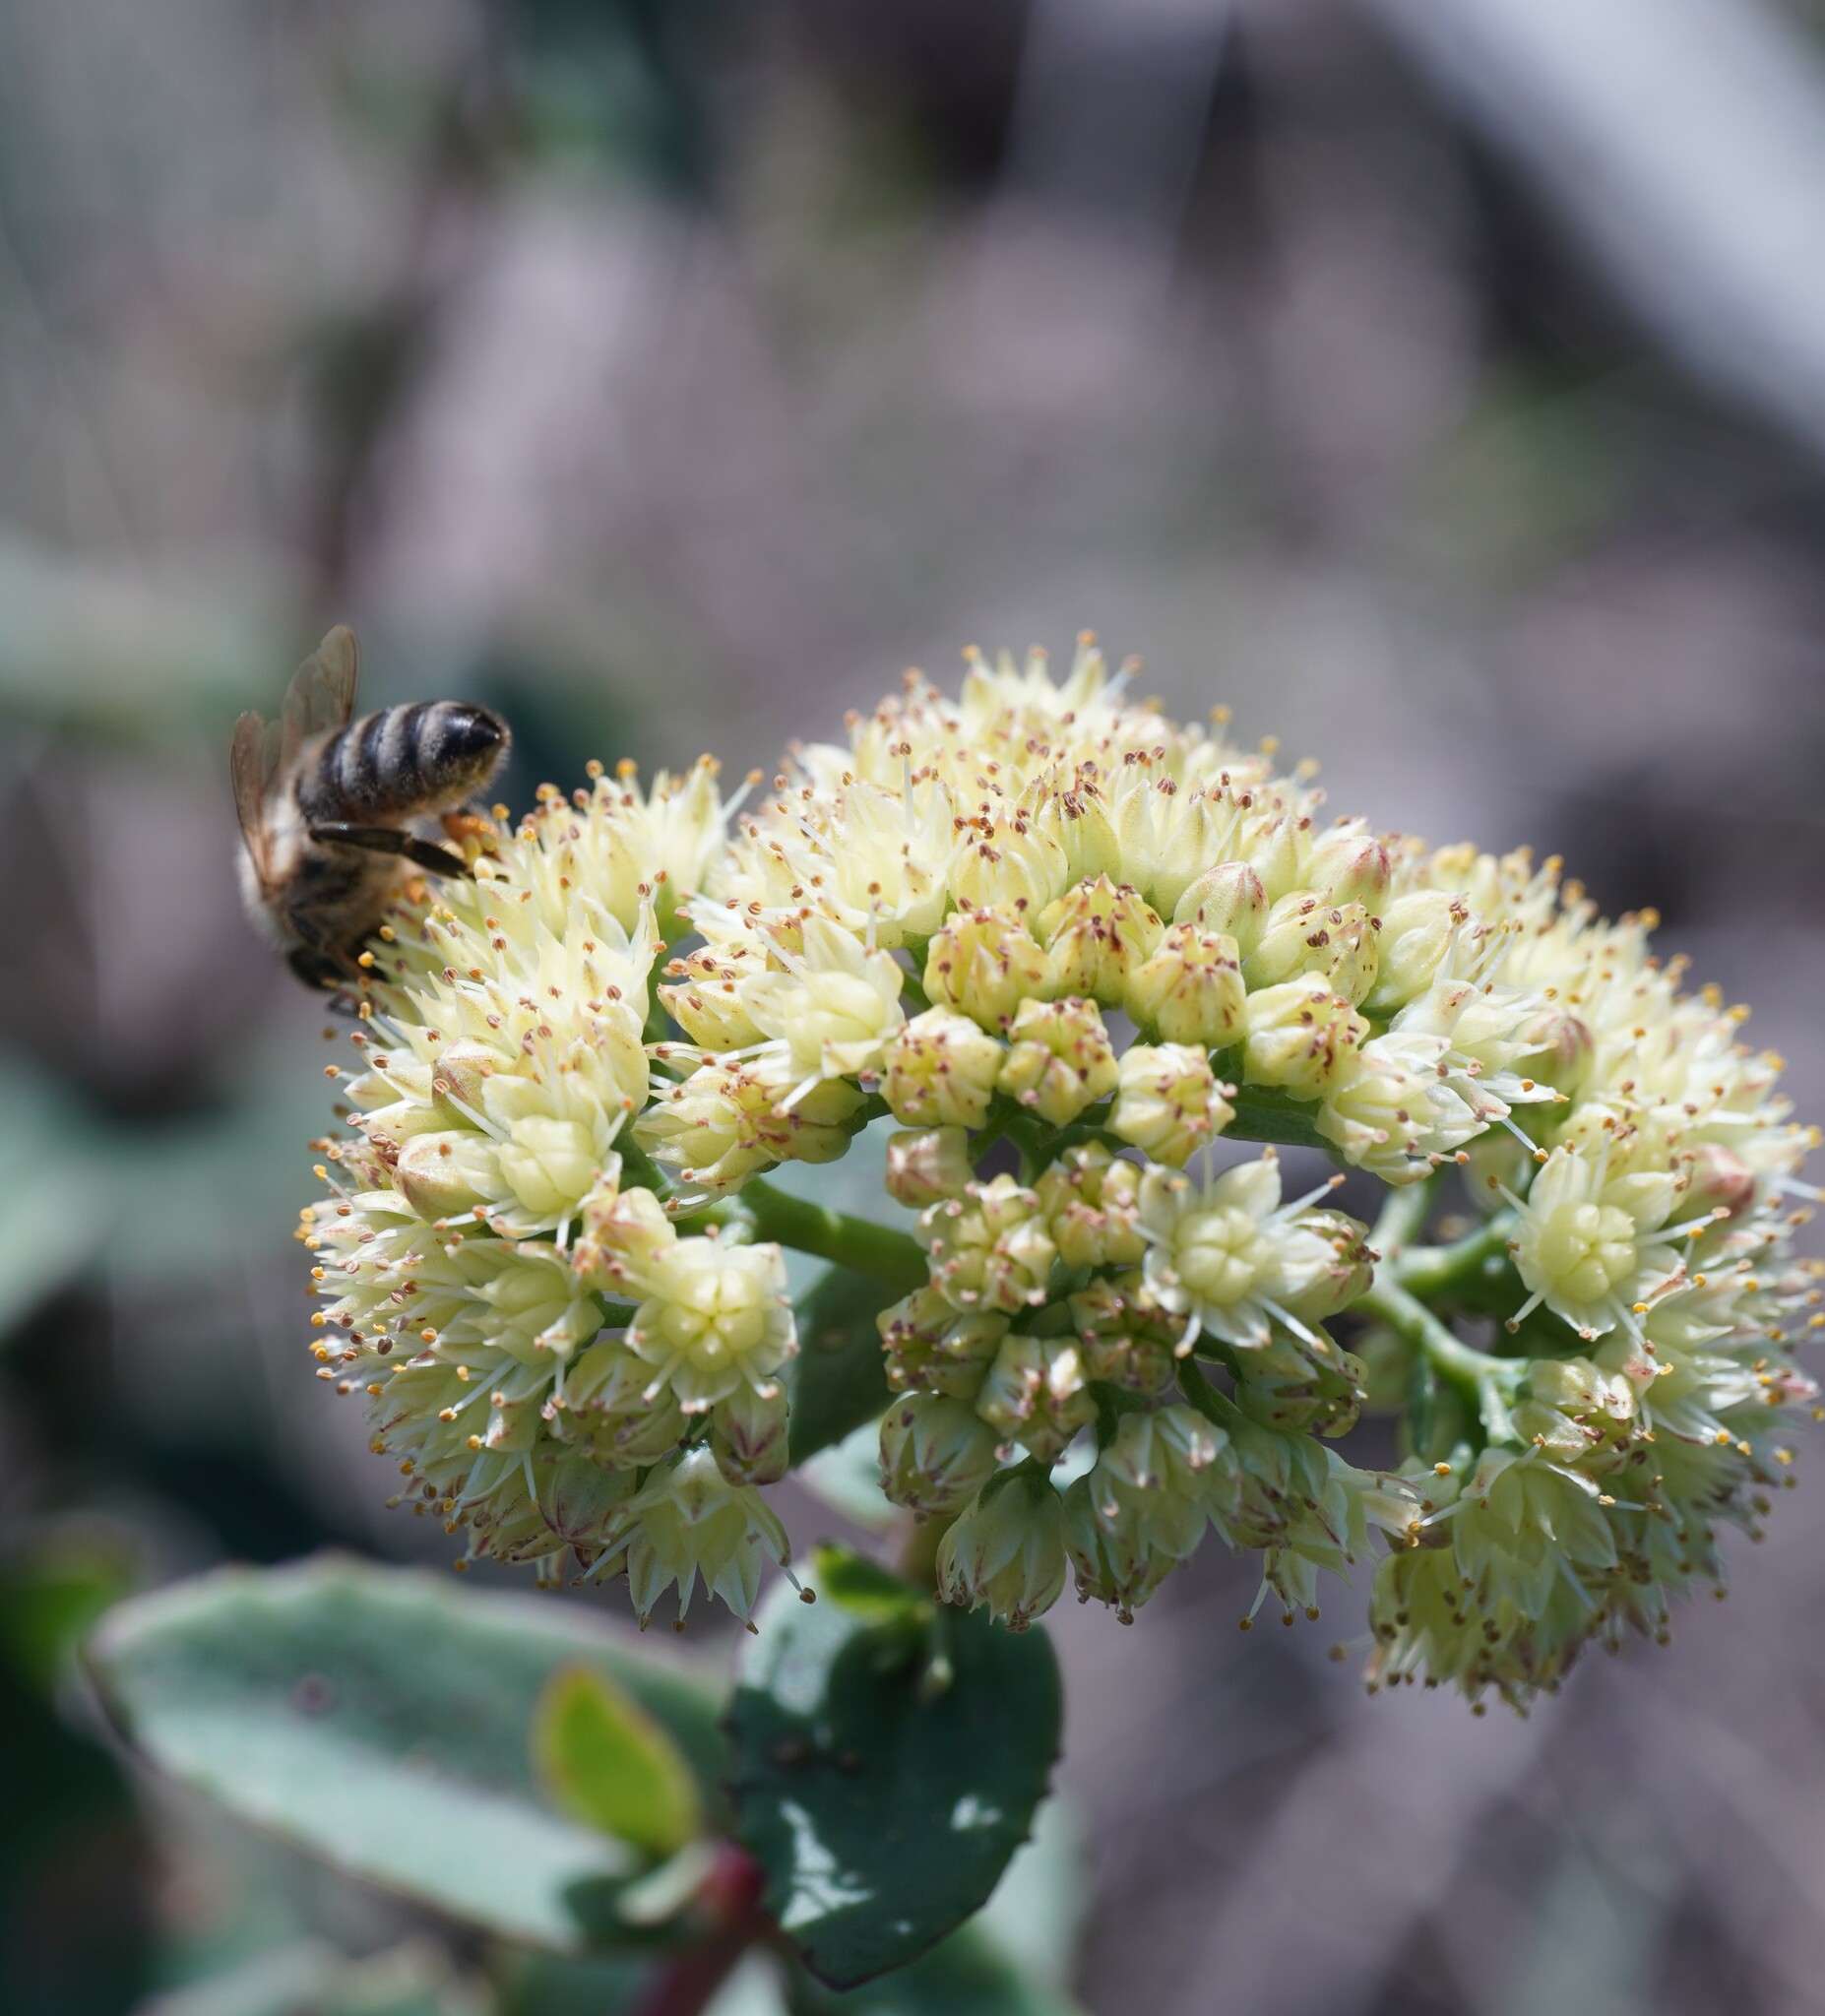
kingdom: Plantae
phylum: Tracheophyta
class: Magnoliopsida
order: Saxifragales
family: Crassulaceae
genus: Hylotelephium
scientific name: Hylotelephium maximum
